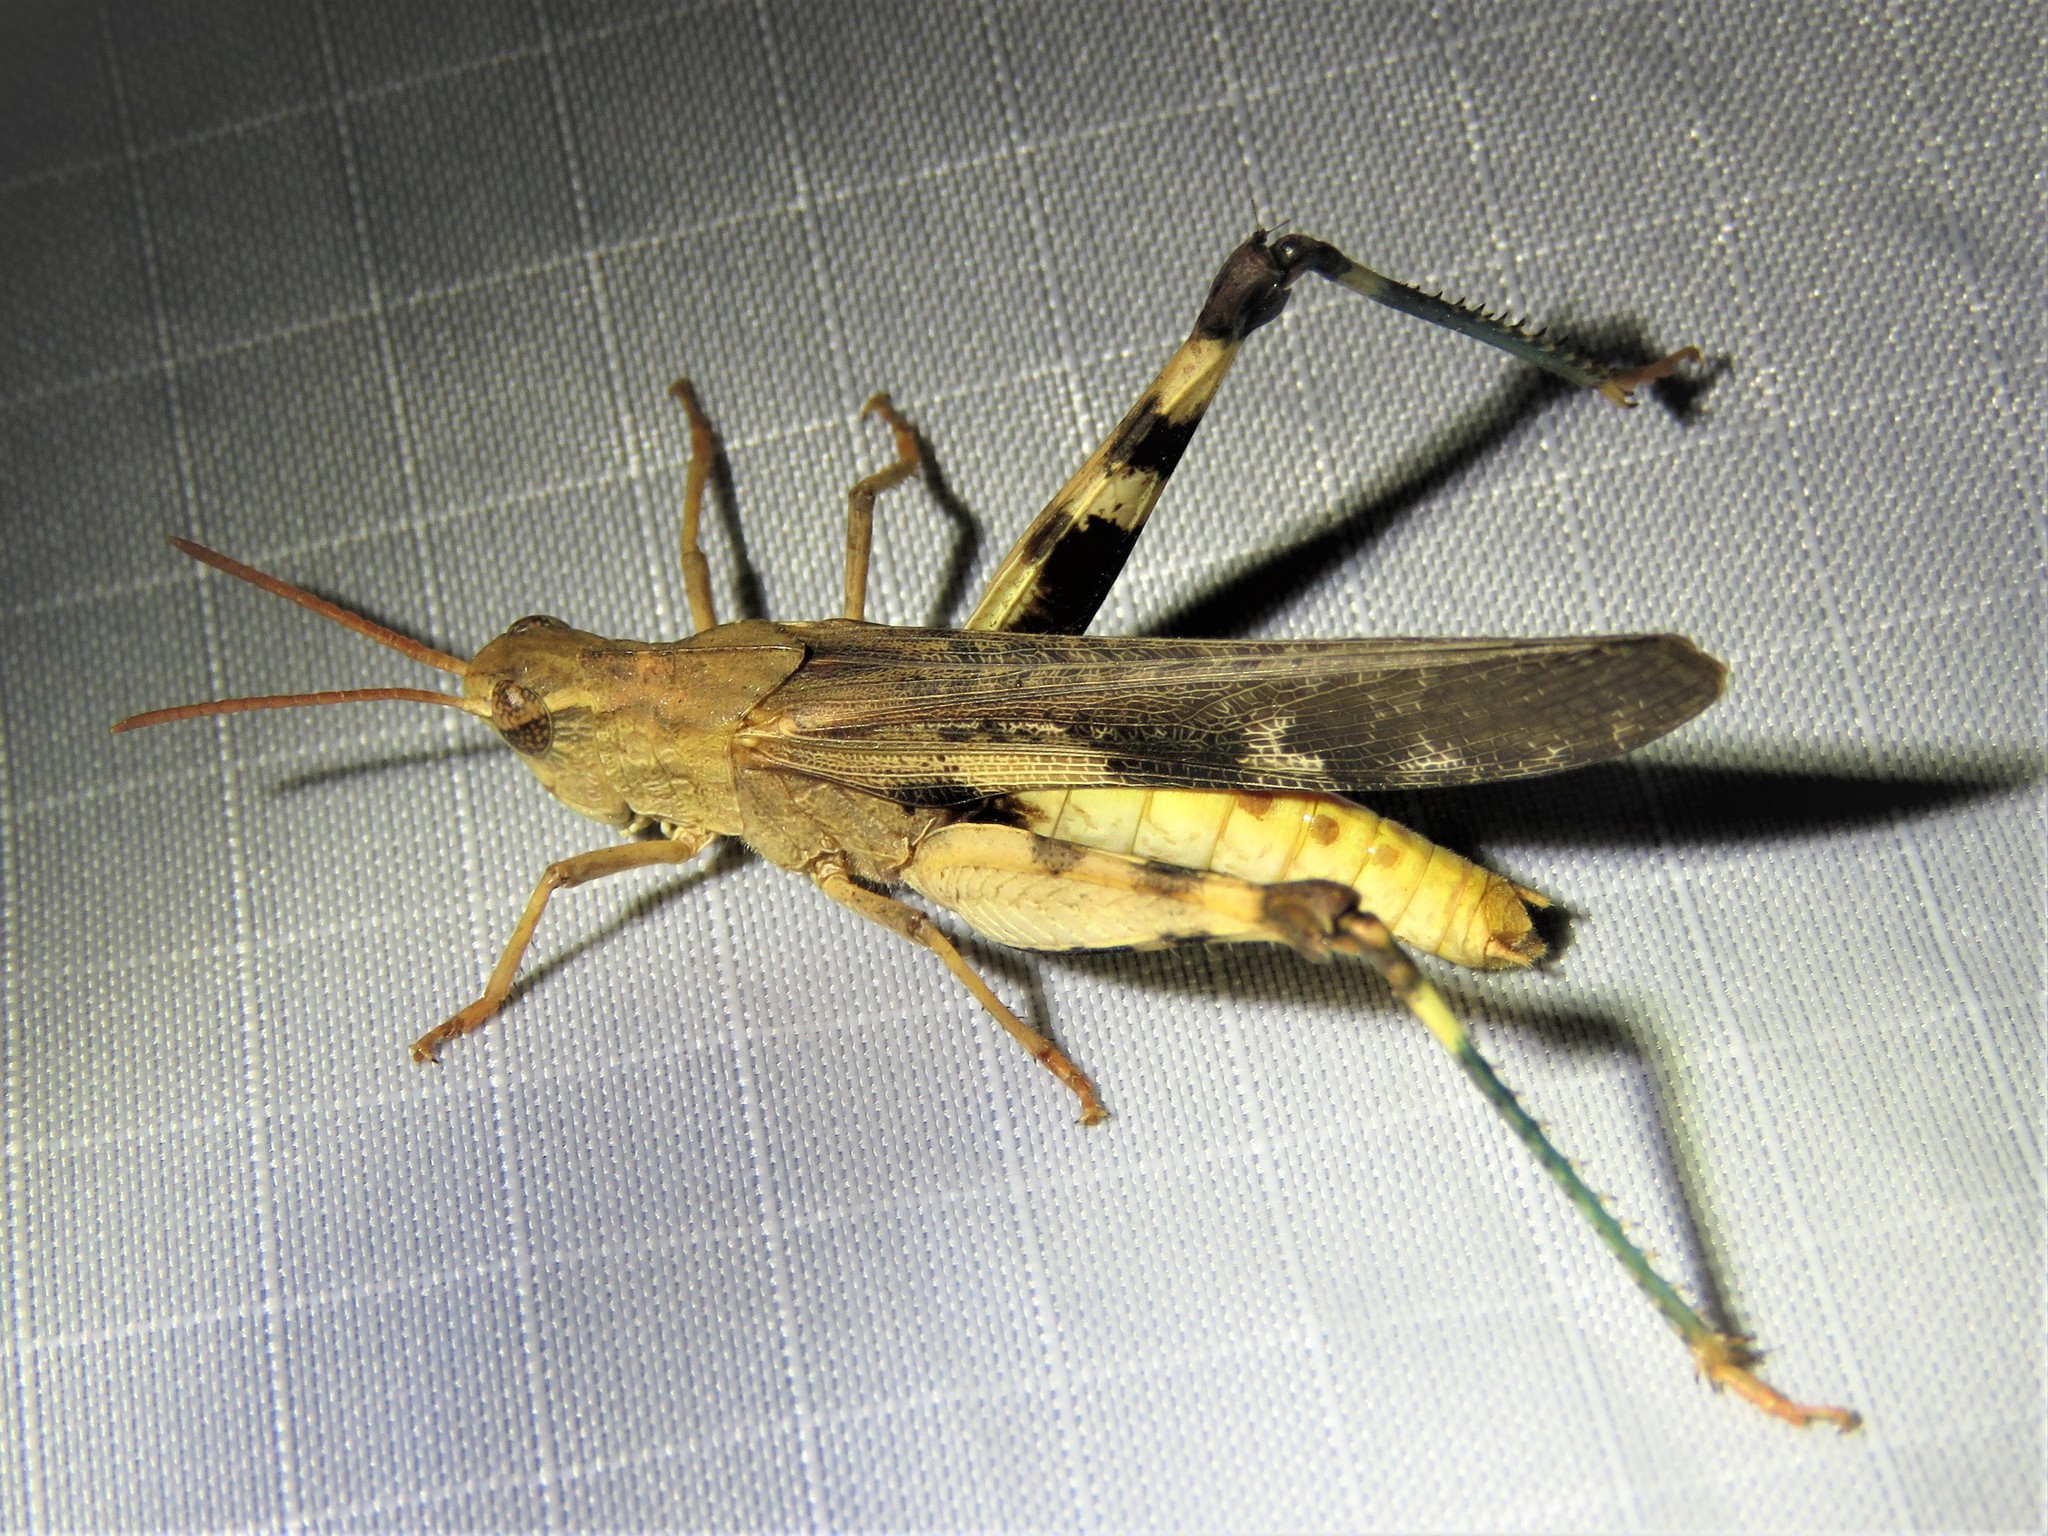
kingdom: Animalia
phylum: Arthropoda
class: Insecta
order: Orthoptera
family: Acrididae
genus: Chortophaga
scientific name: Chortophaga viridifasciata
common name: Green-striped grasshopper
